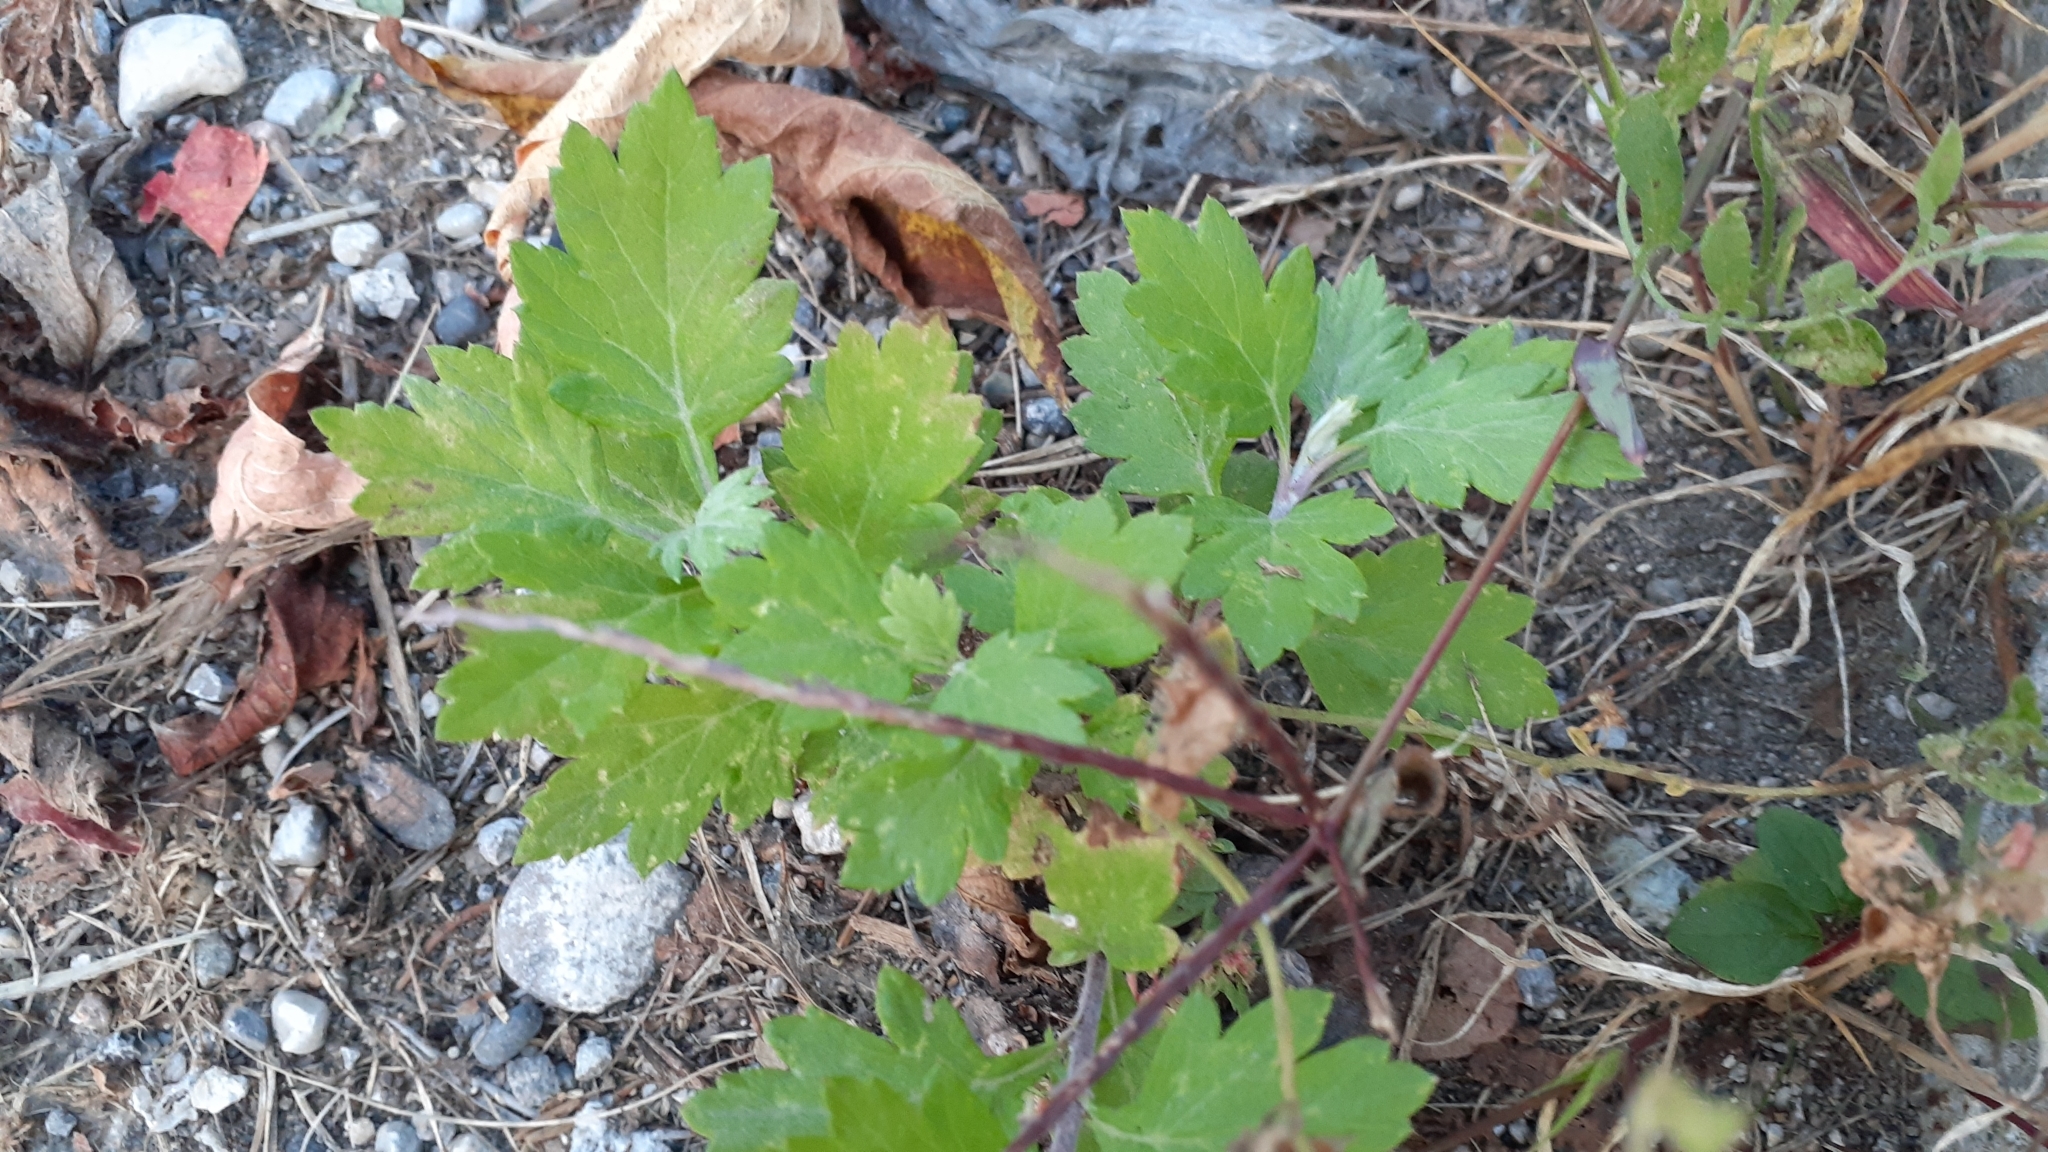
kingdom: Plantae
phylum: Tracheophyta
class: Magnoliopsida
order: Asterales
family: Asteraceae
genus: Artemisia
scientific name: Artemisia vulgaris
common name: Mugwort
